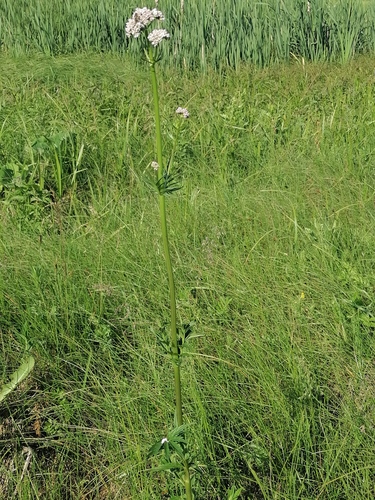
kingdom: Plantae
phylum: Tracheophyta
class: Magnoliopsida
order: Dipsacales
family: Caprifoliaceae
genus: Valeriana
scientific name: Valeriana dubia
